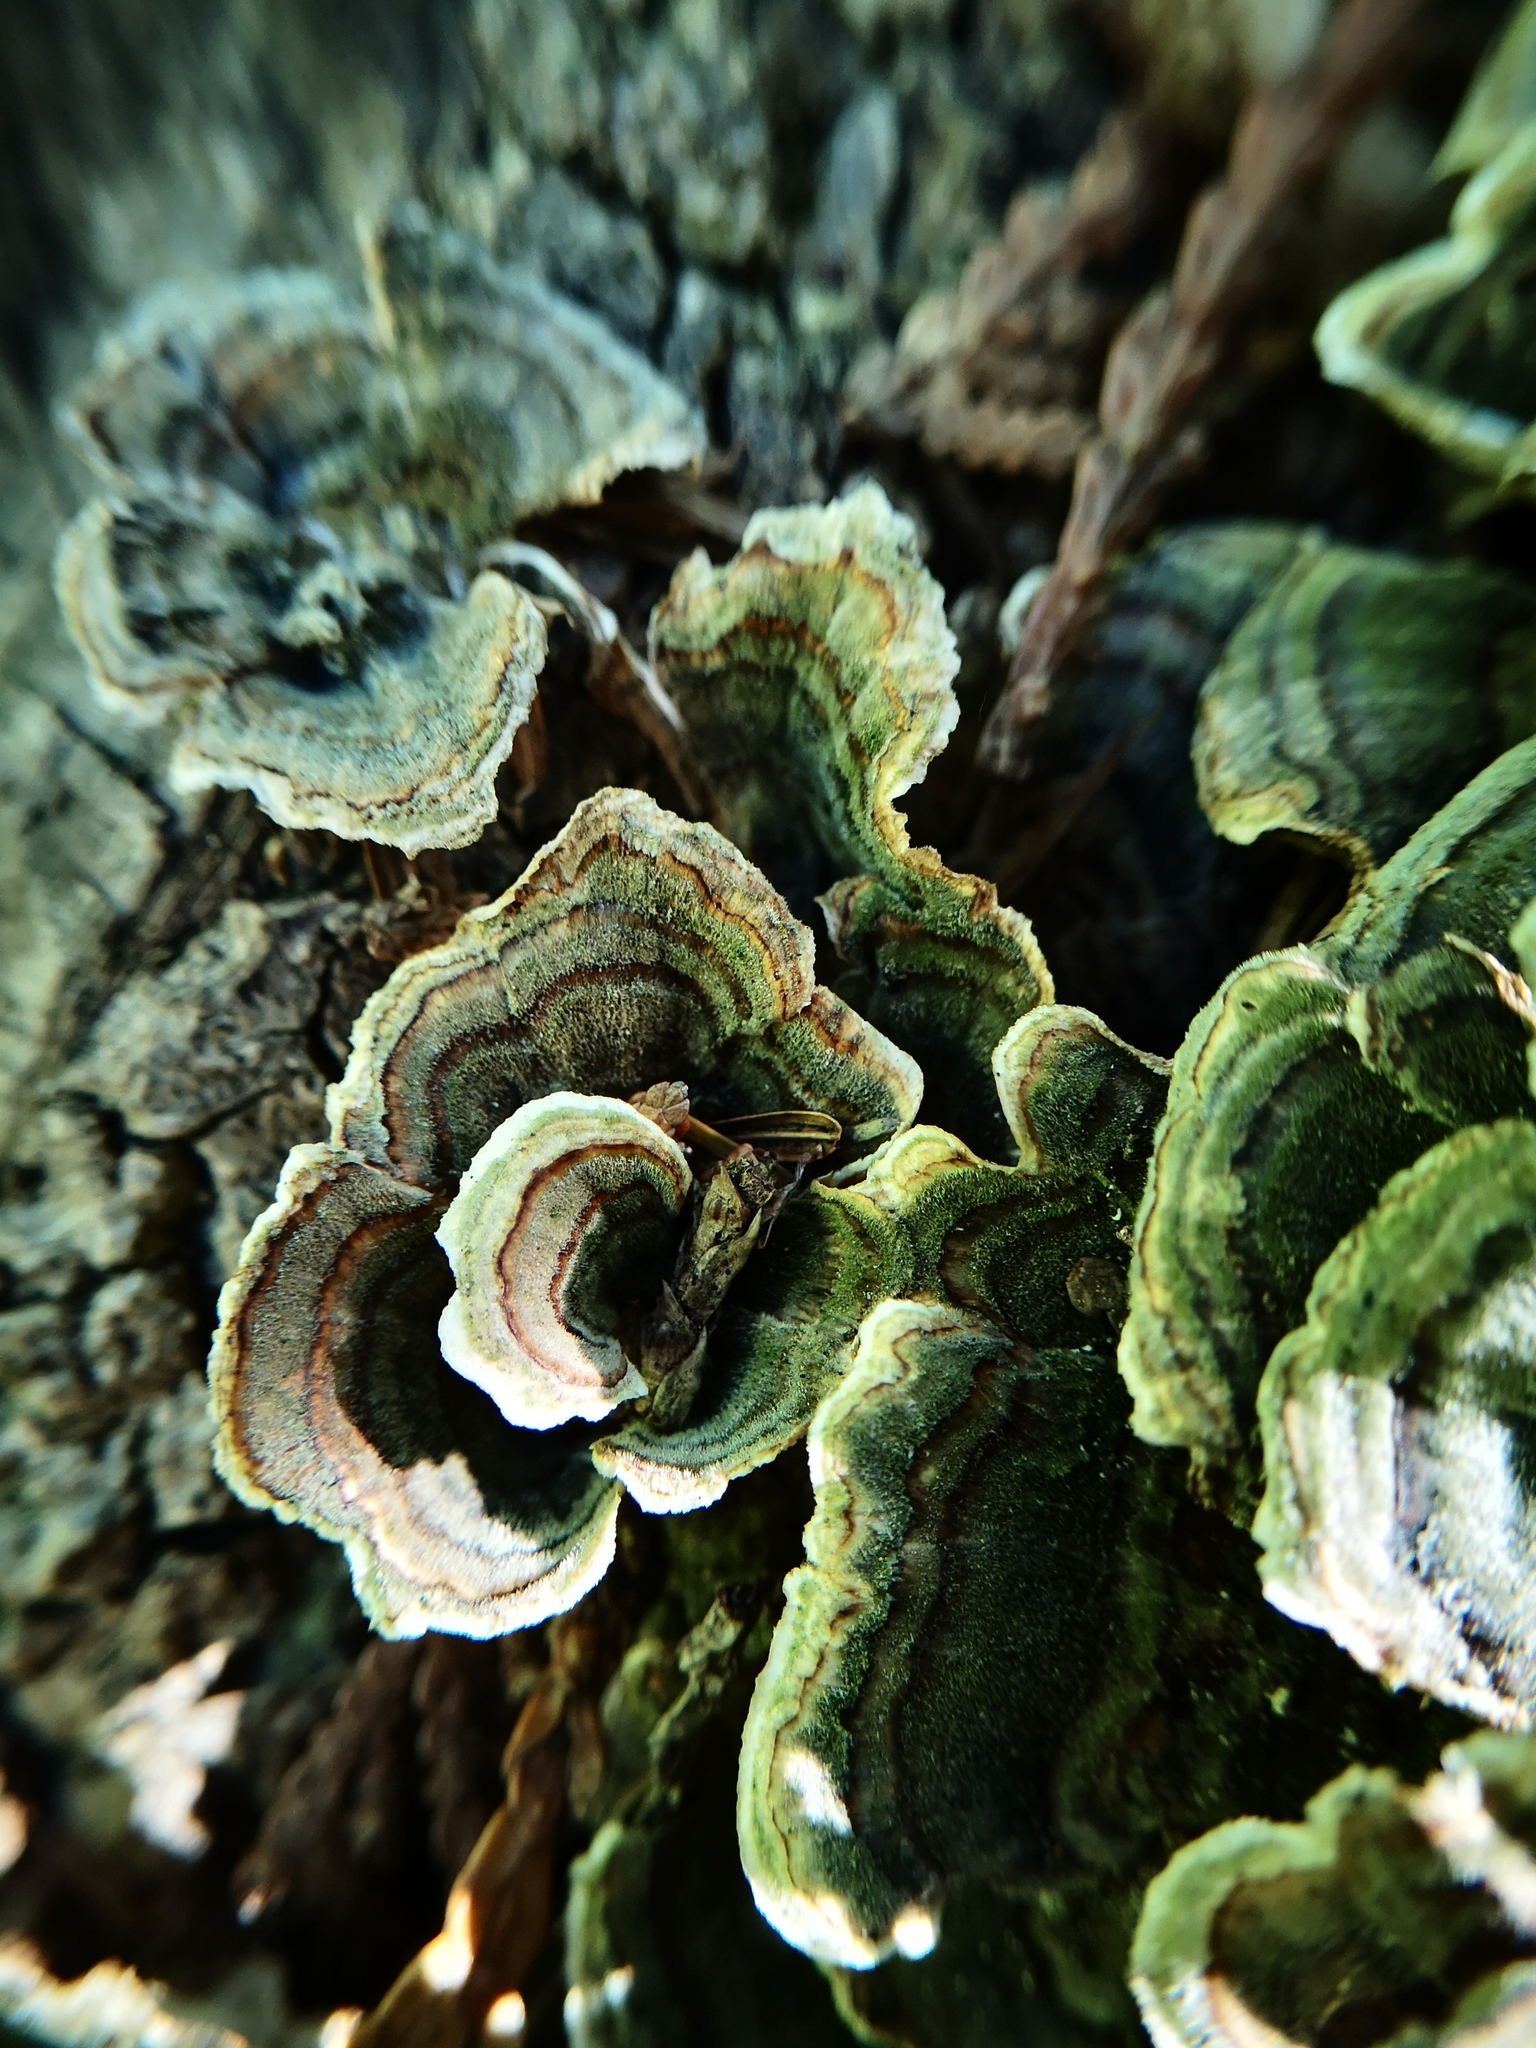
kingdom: Fungi
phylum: Basidiomycota
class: Agaricomycetes
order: Polyporales
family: Polyporaceae
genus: Trametes
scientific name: Trametes versicolor
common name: Turkeytail
